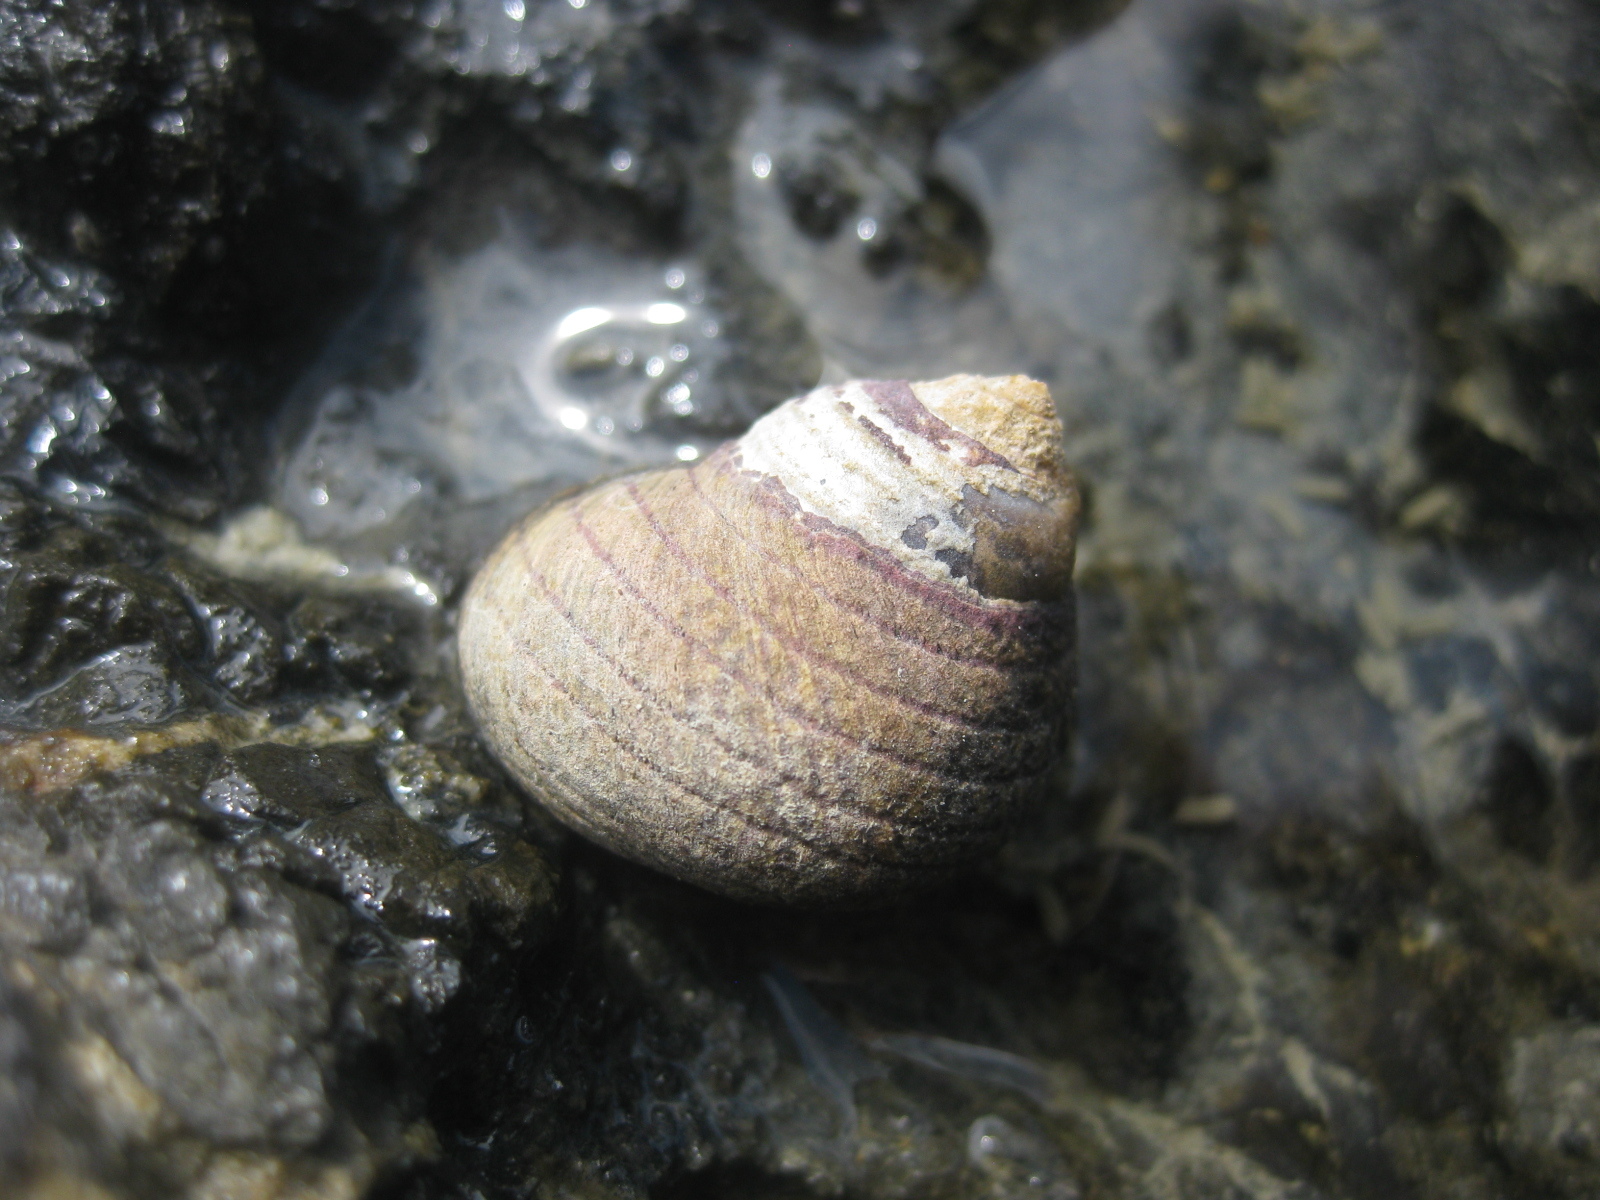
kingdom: Animalia
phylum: Mollusca
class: Gastropoda
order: Trochida
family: Trochidae
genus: Diloma
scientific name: Diloma aethiops
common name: Scorched monodont
